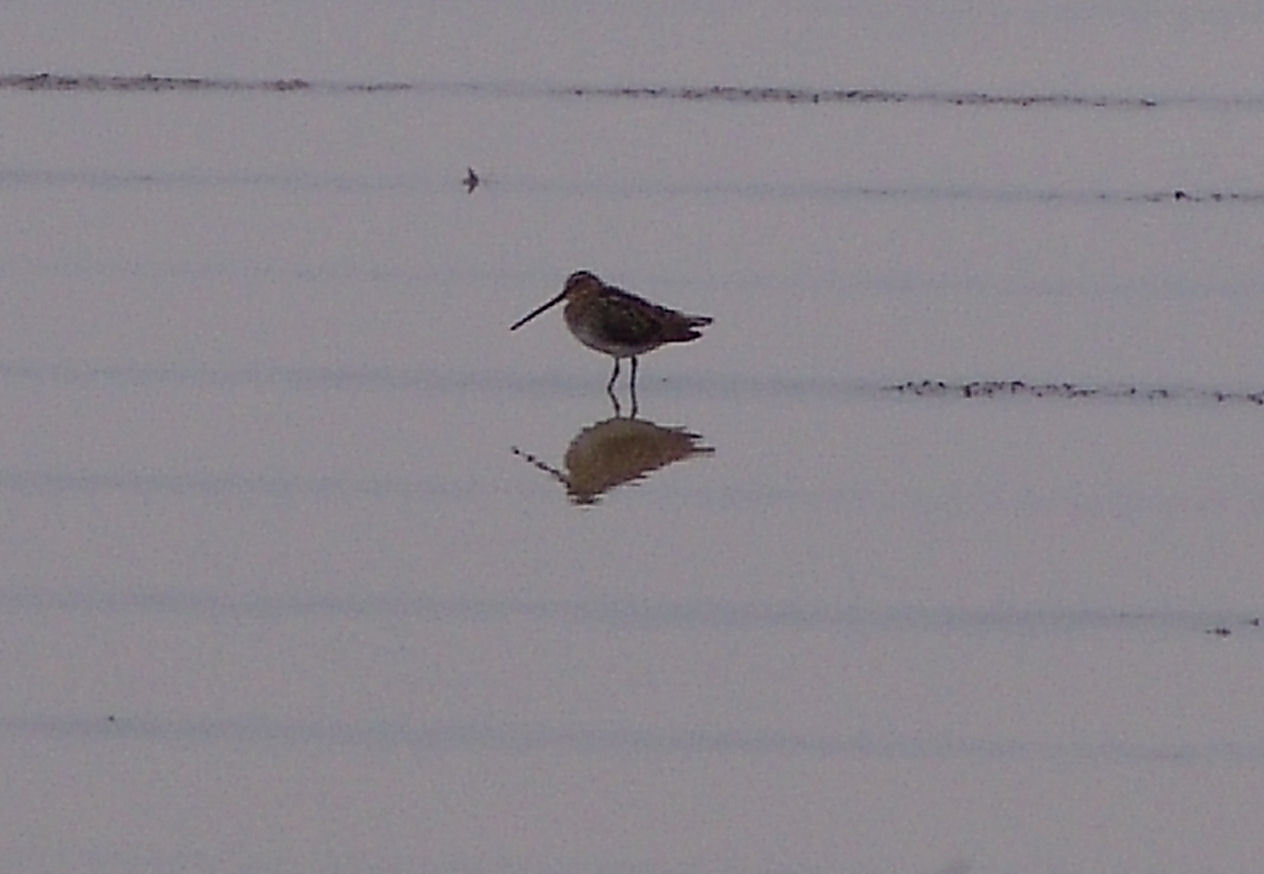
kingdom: Animalia
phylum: Chordata
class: Aves
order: Charadriiformes
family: Scolopacidae
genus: Gallinago
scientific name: Gallinago delicata
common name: Wilson's snipe
